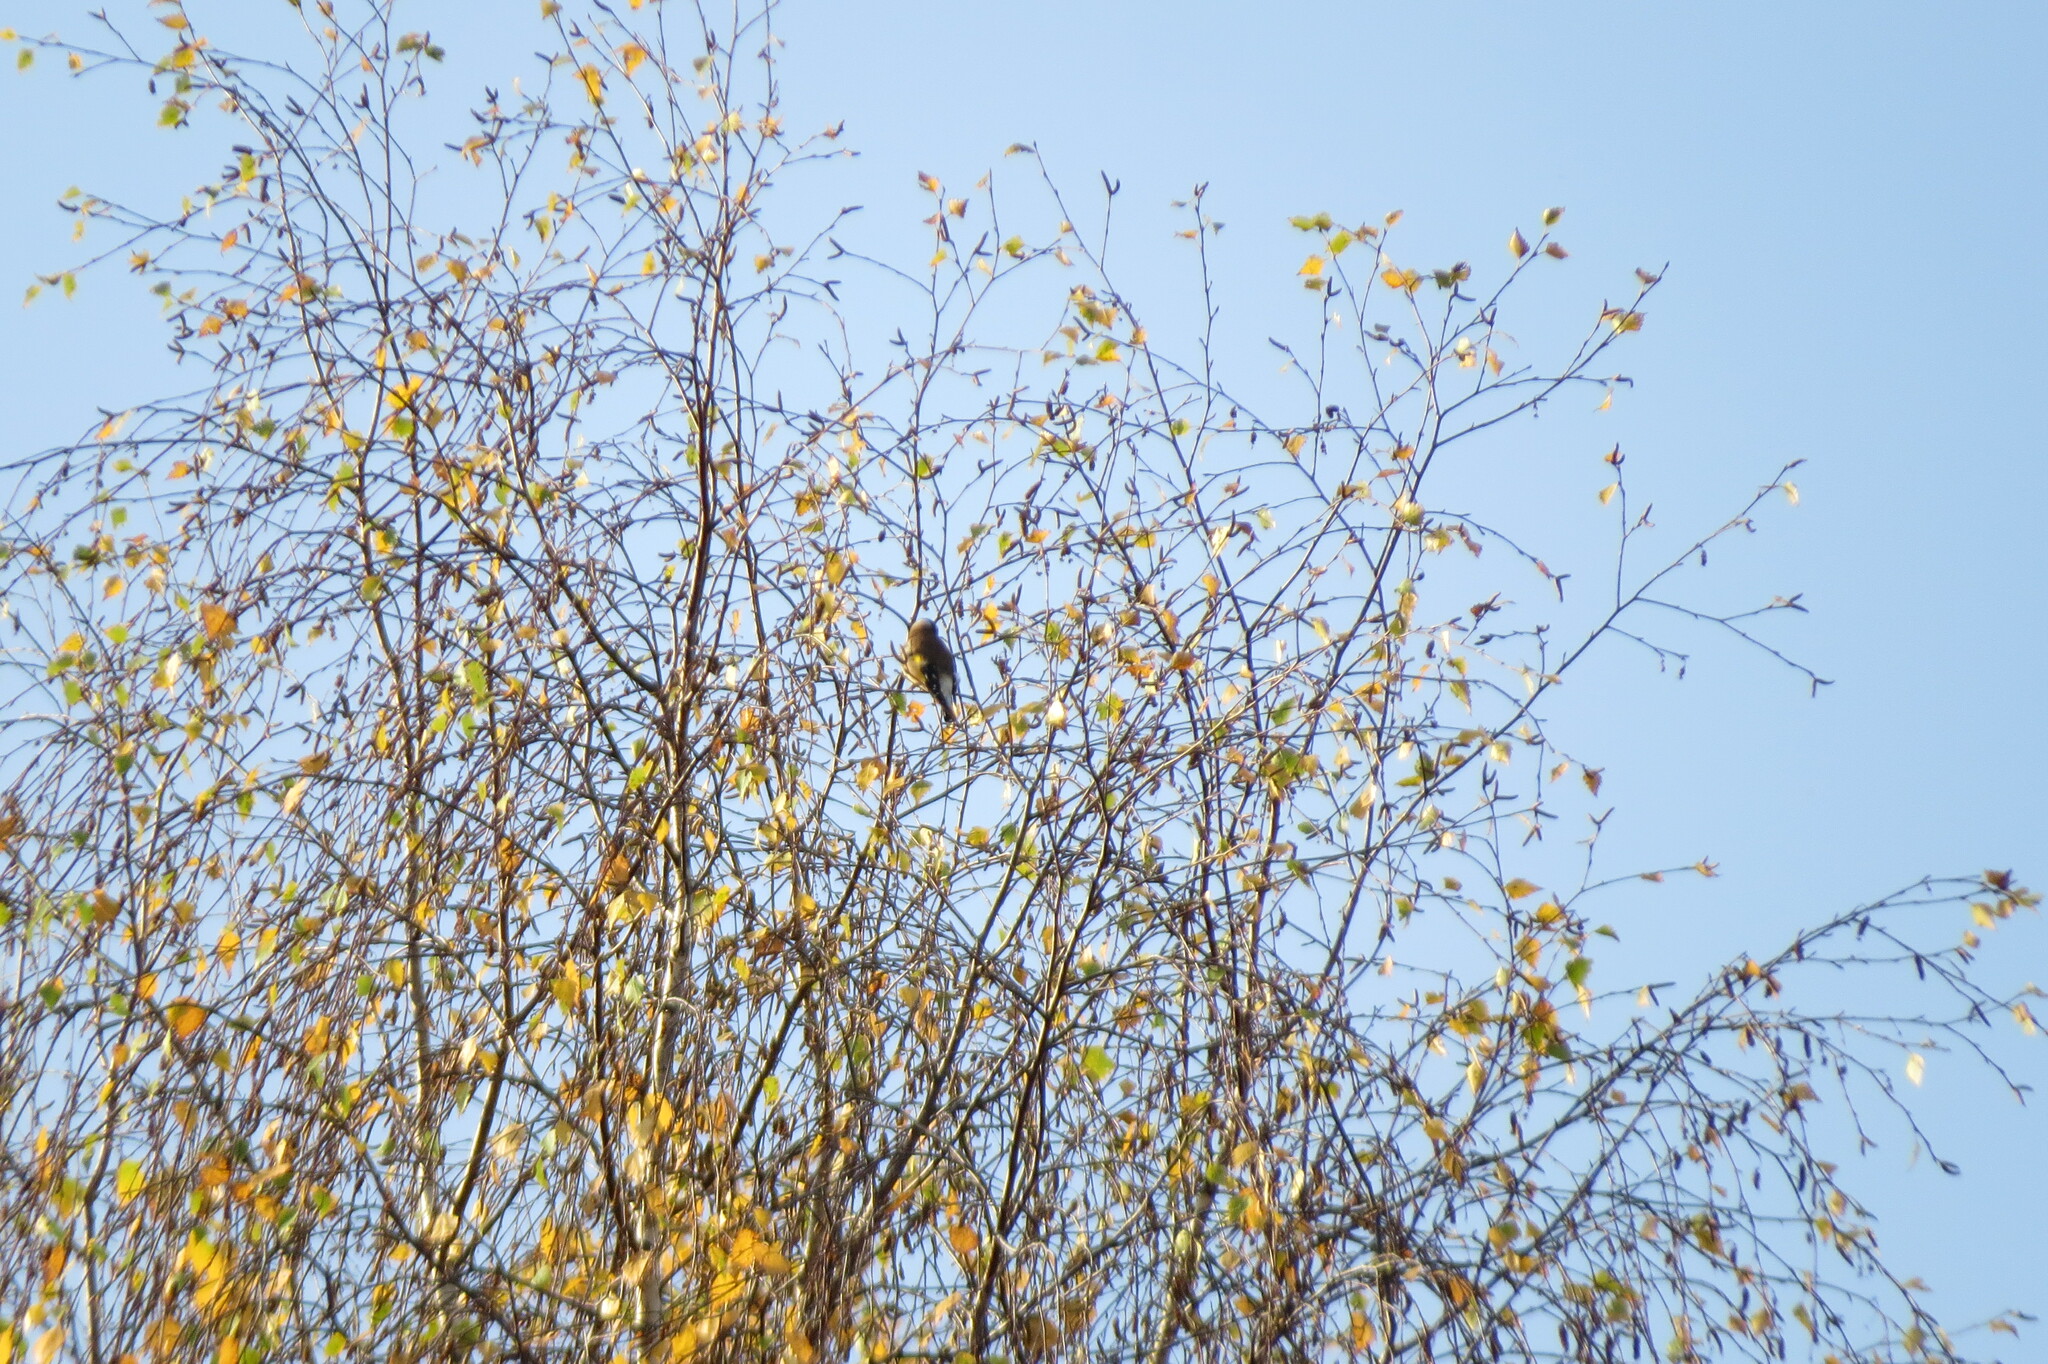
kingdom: Animalia
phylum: Chordata
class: Aves
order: Passeriformes
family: Fringillidae
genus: Carduelis
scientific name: Carduelis carduelis
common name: European goldfinch
